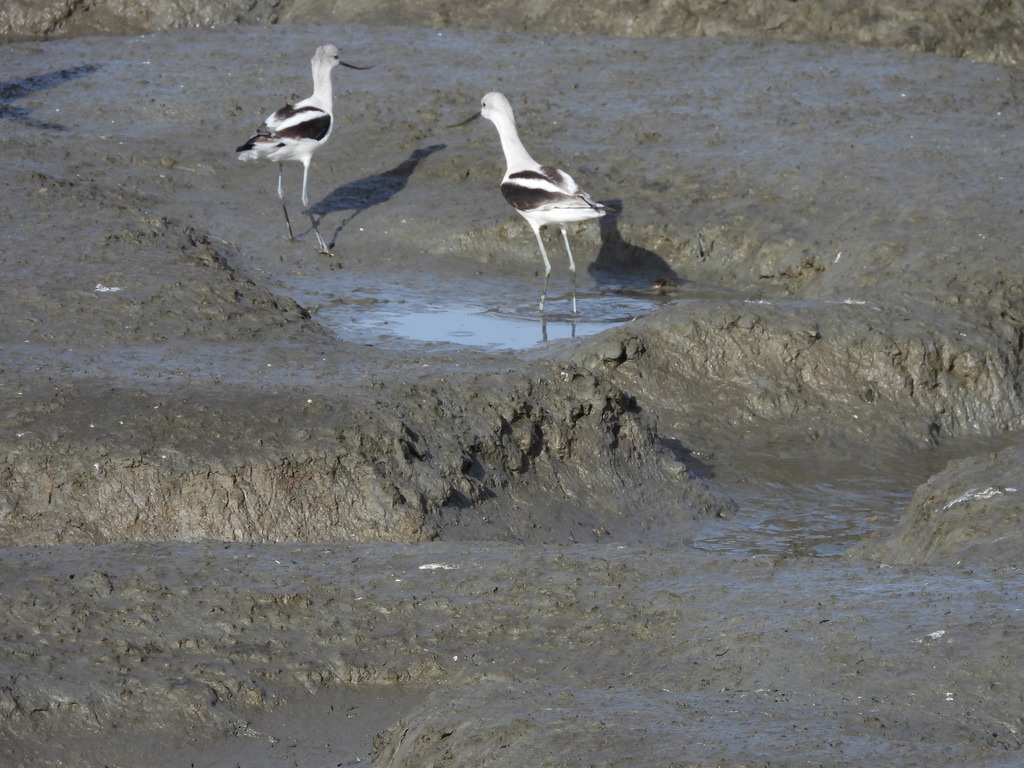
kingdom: Animalia
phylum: Chordata
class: Aves
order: Charadriiformes
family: Recurvirostridae
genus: Recurvirostra
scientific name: Recurvirostra americana
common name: American avocet
